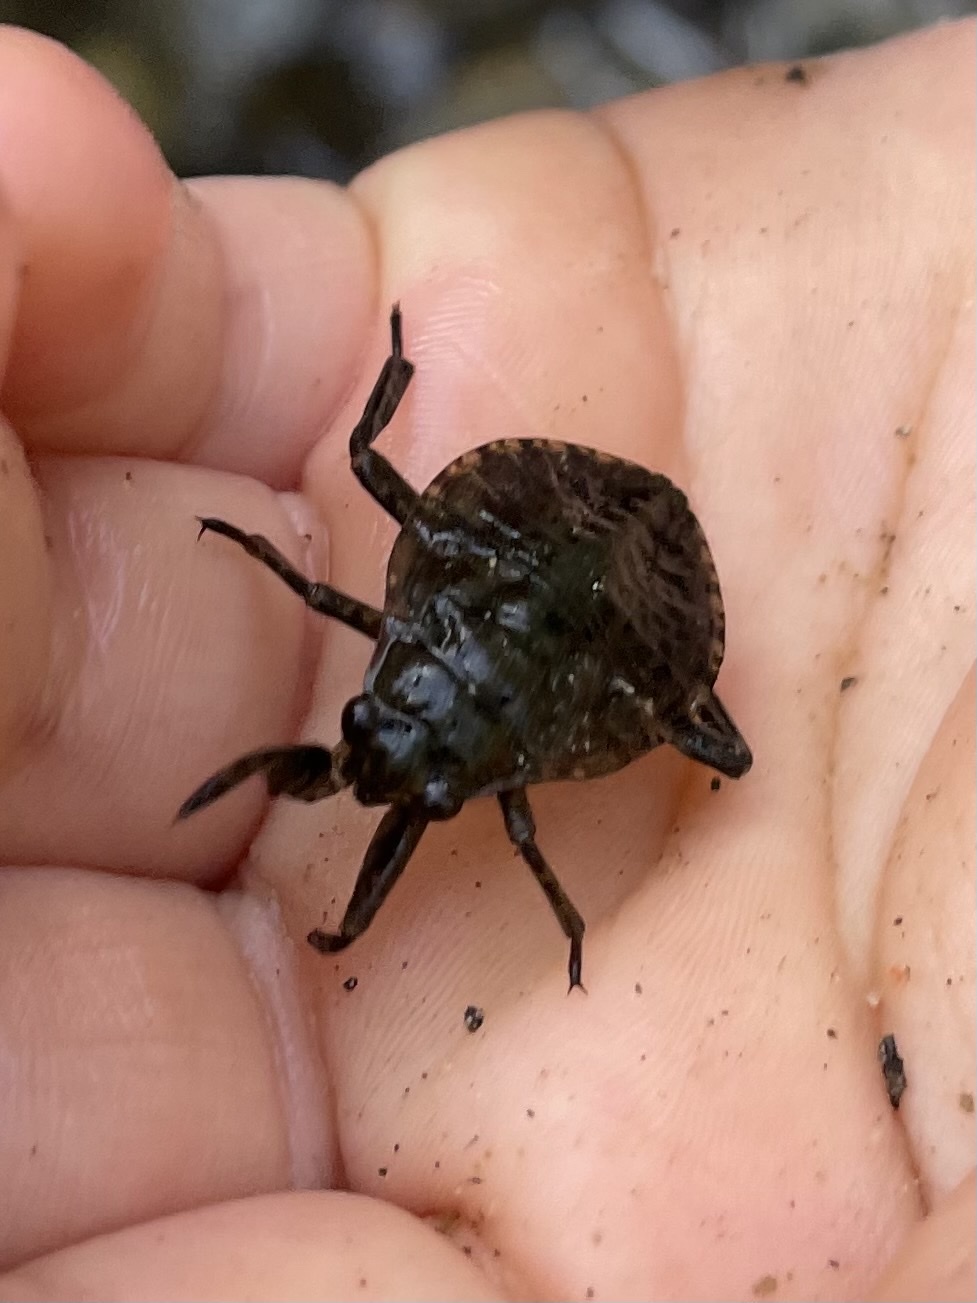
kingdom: Animalia
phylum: Arthropoda
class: Insecta
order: Hemiptera
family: Belostomatidae
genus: Abedus
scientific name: Abedus indentatus
